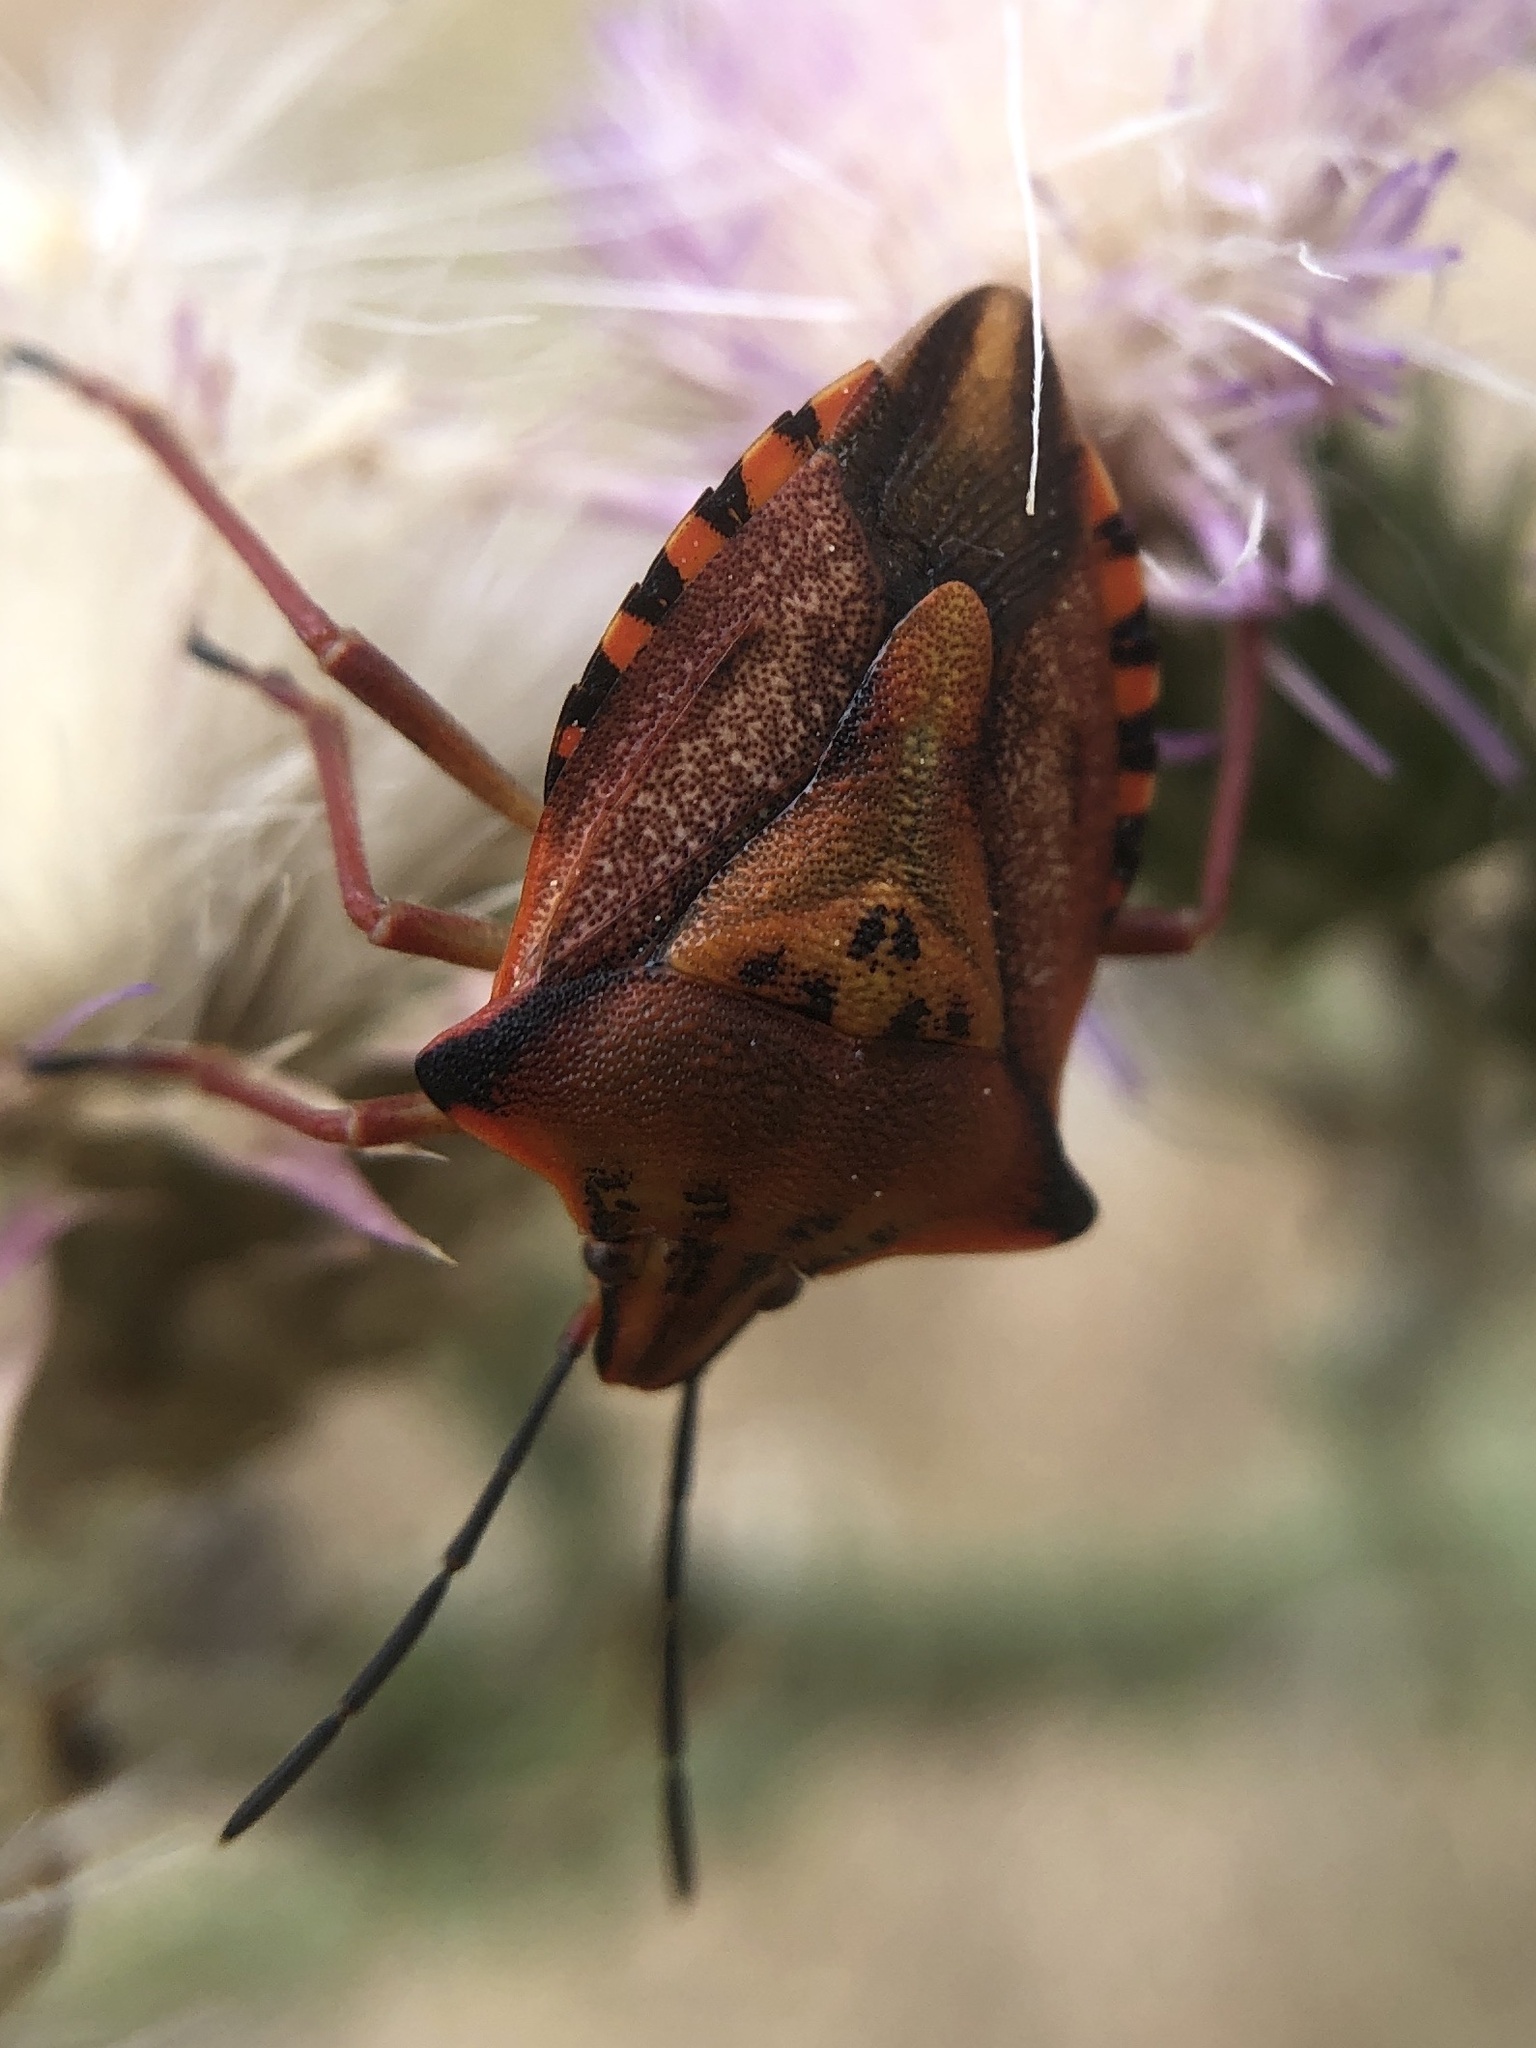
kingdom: Animalia
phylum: Arthropoda
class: Insecta
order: Hemiptera
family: Pentatomidae
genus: Carpocoris
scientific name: Carpocoris mediterraneus
